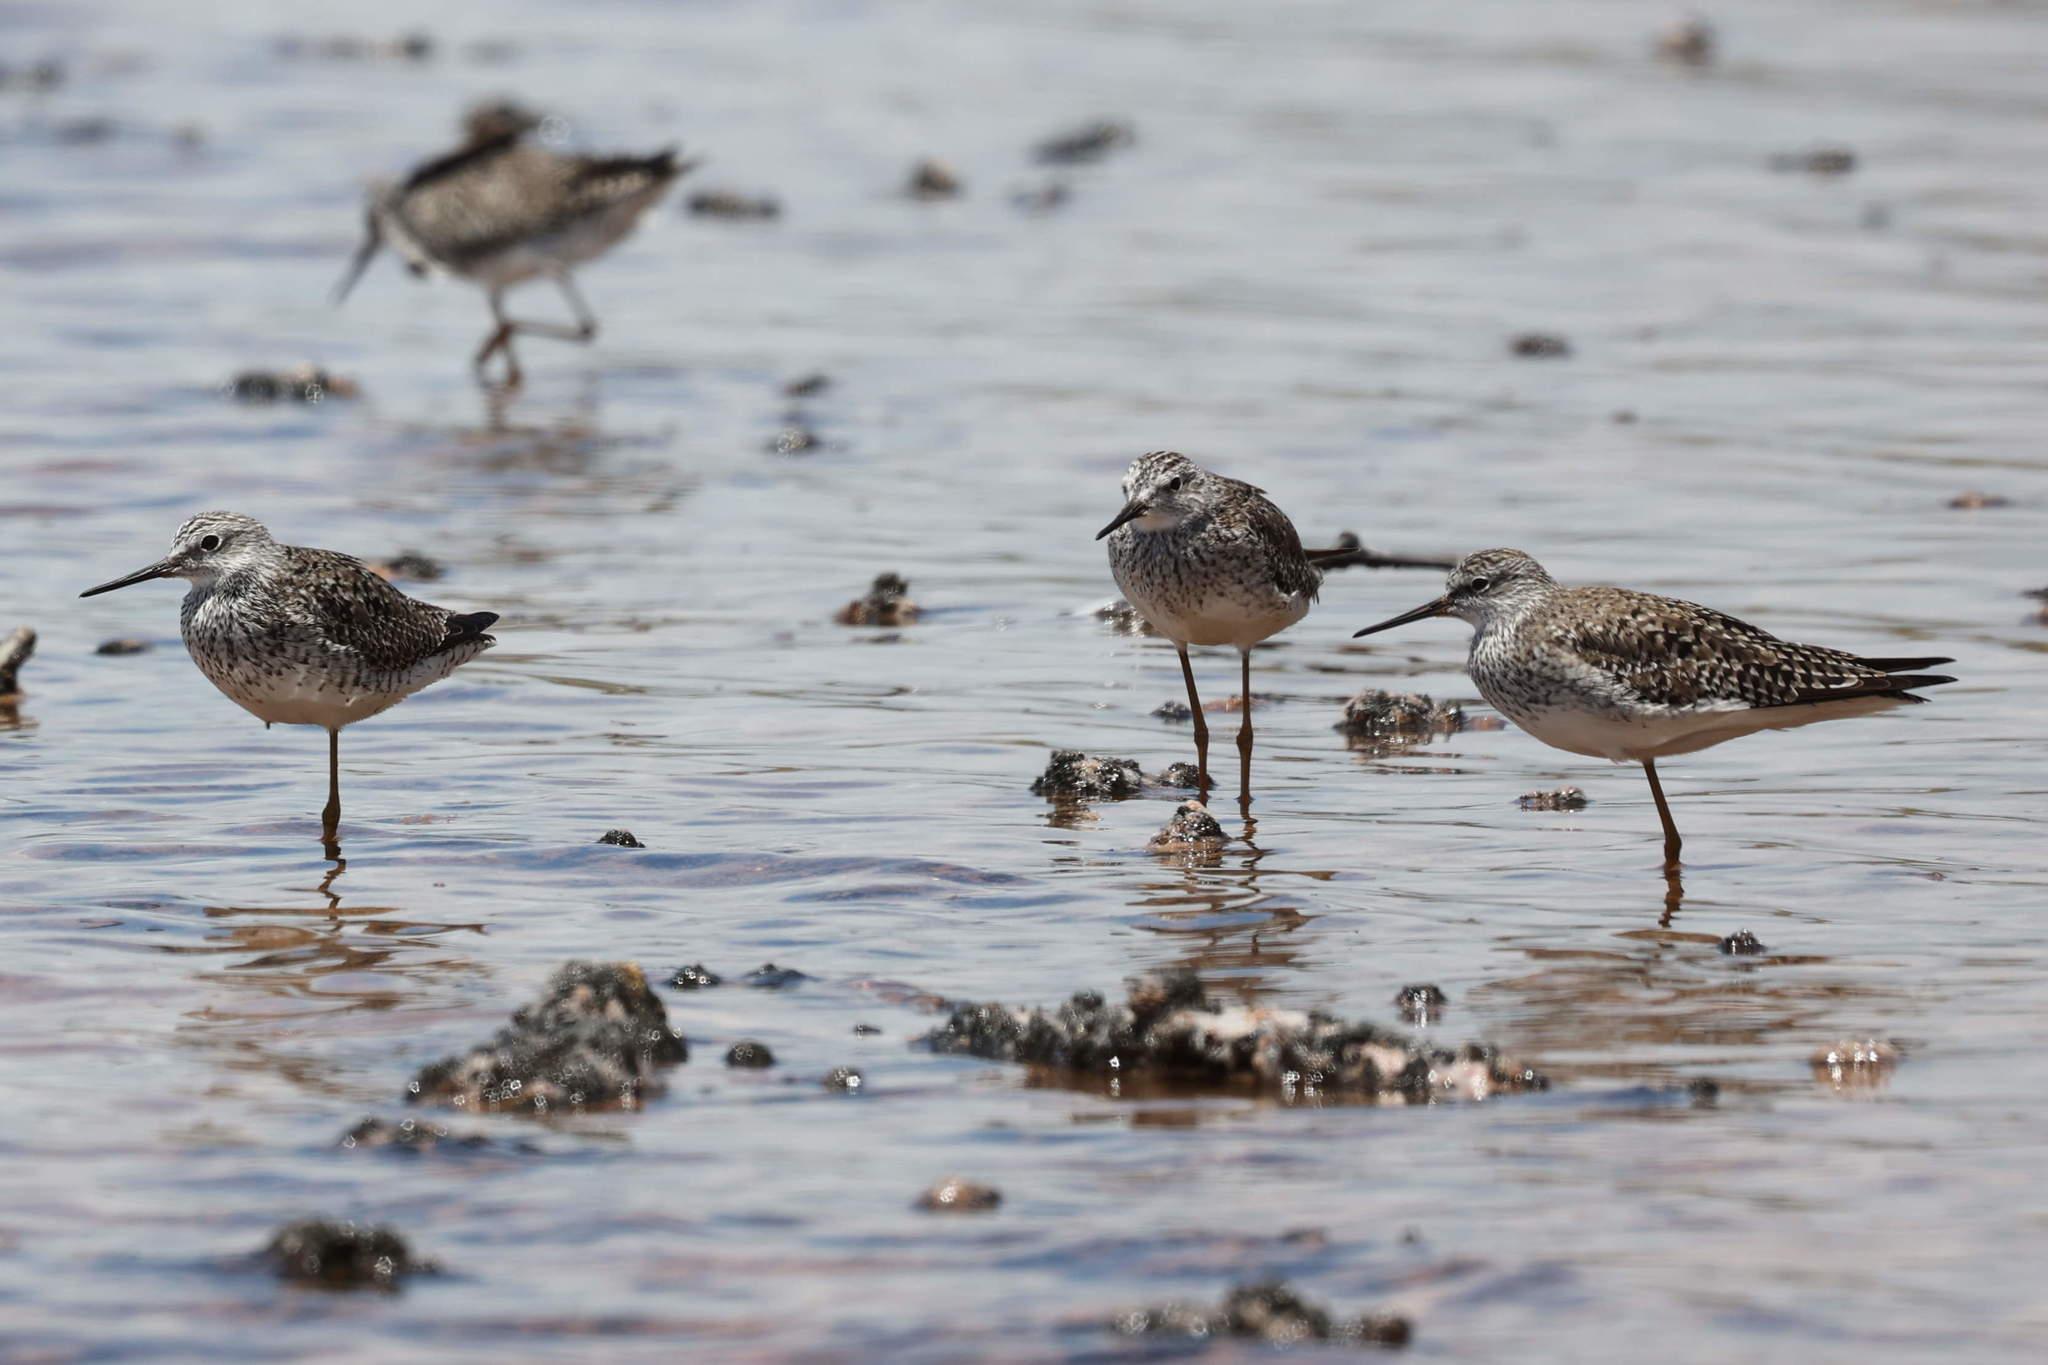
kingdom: Animalia
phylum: Chordata
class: Aves
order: Charadriiformes
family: Scolopacidae
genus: Tringa
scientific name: Tringa flavipes
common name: Lesser yellowlegs
